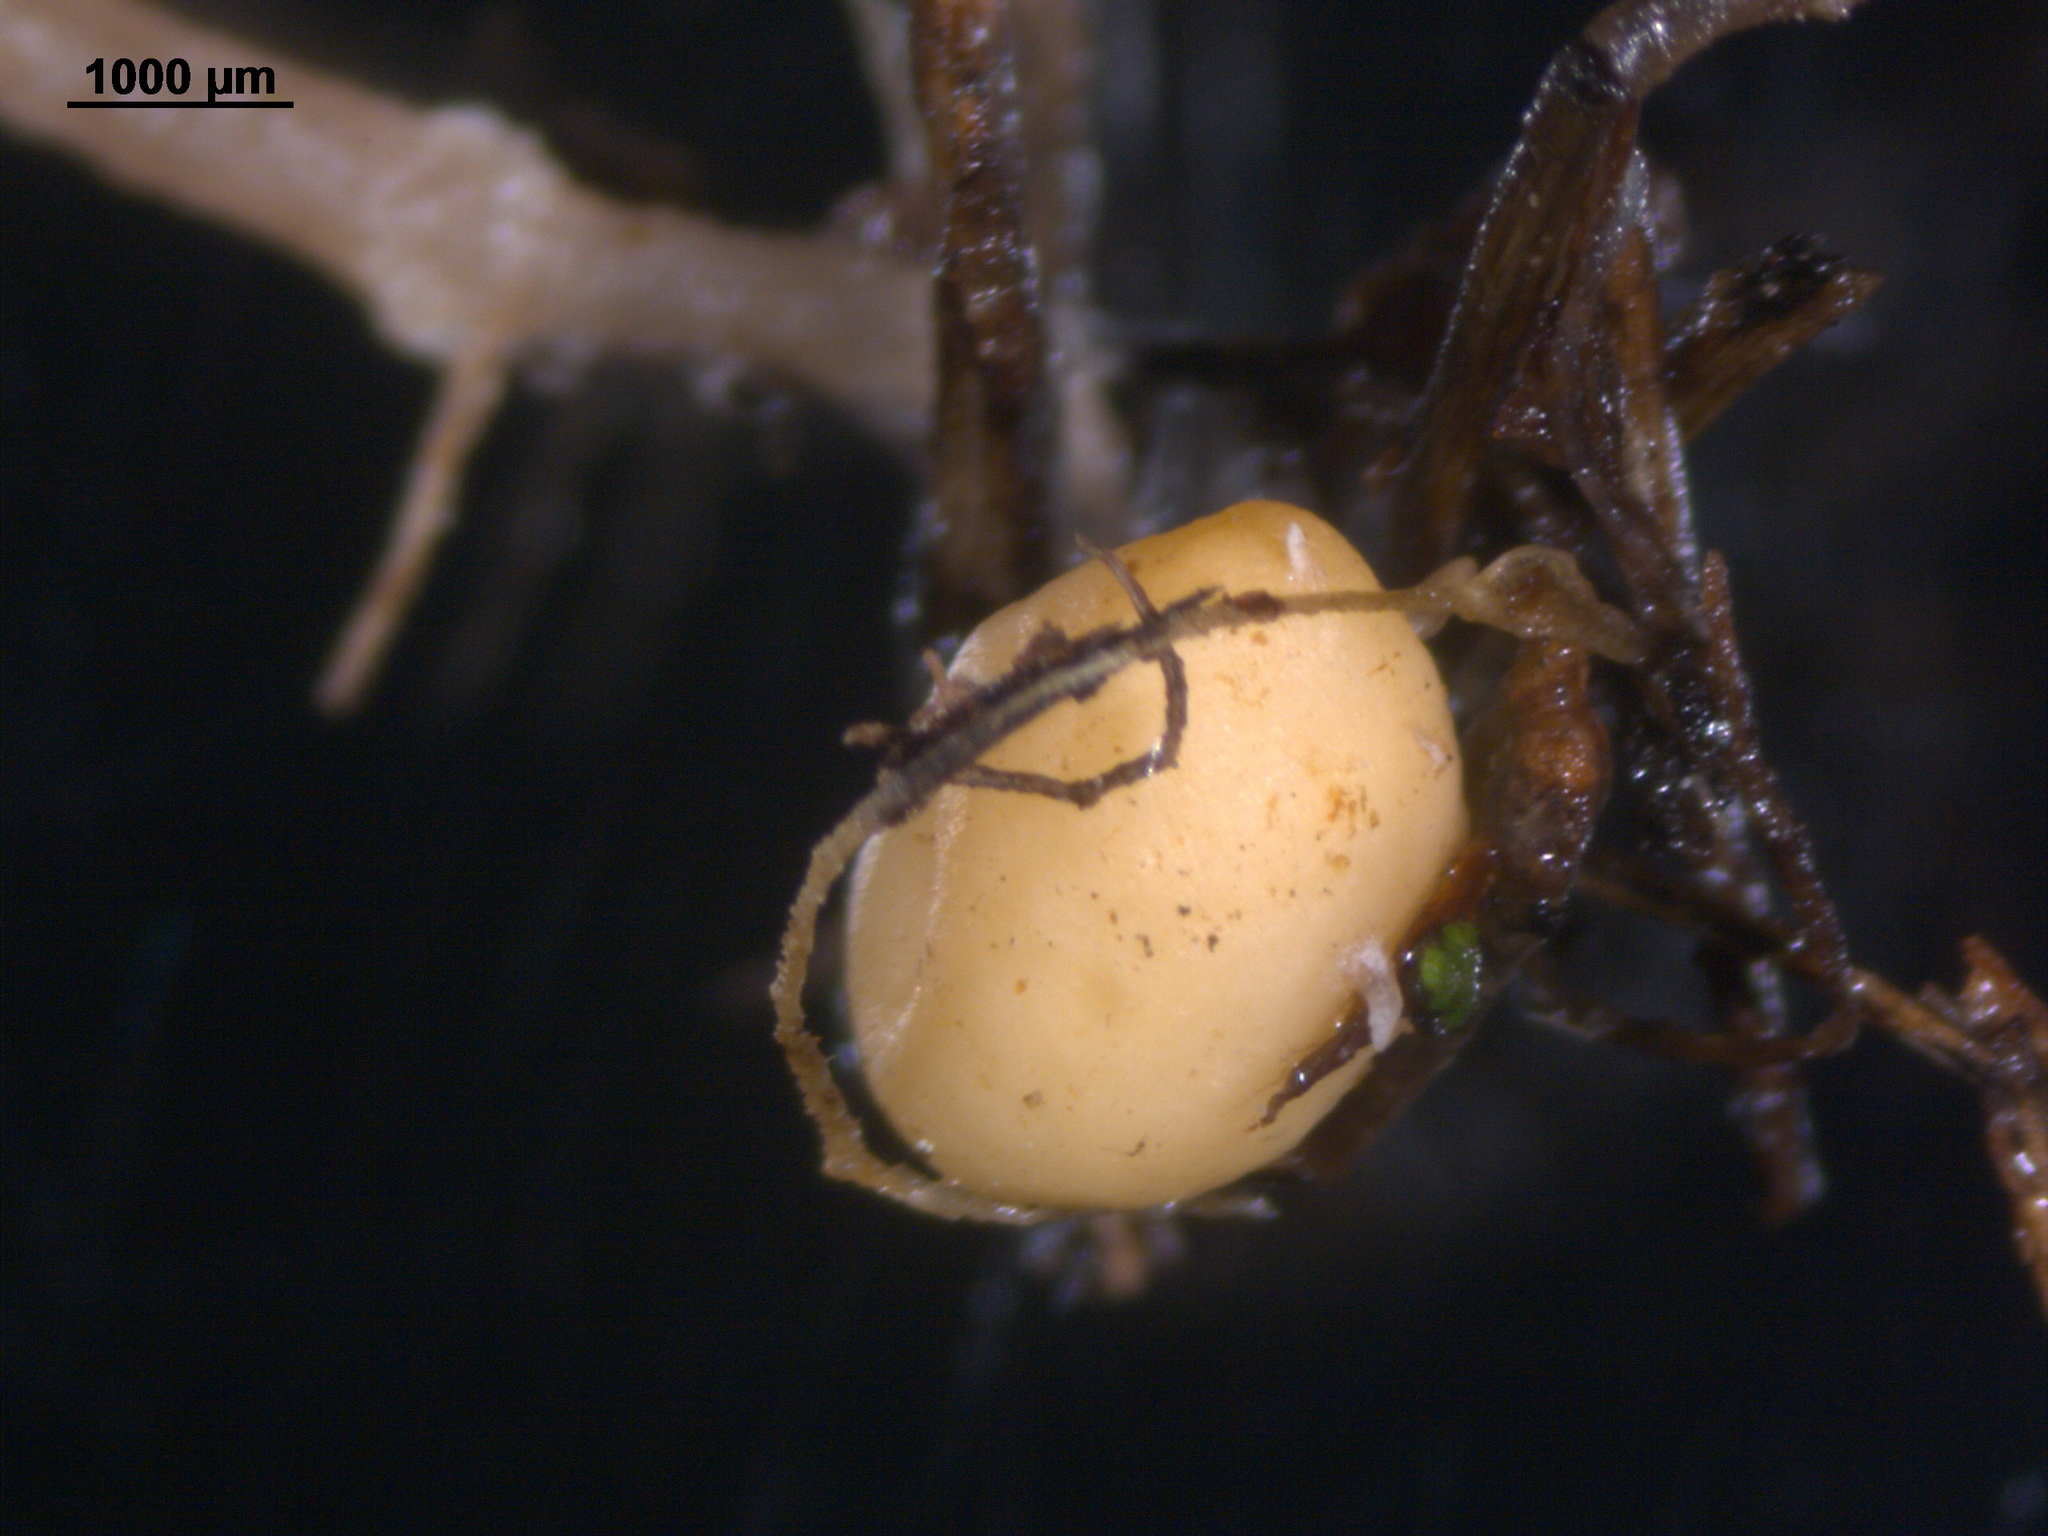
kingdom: Fungi
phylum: Basidiomycota
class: Agaricomycetes
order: Agaricales
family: Tricholomataceae
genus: Collybia
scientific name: Collybia cookei
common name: Splitpea shanklet
